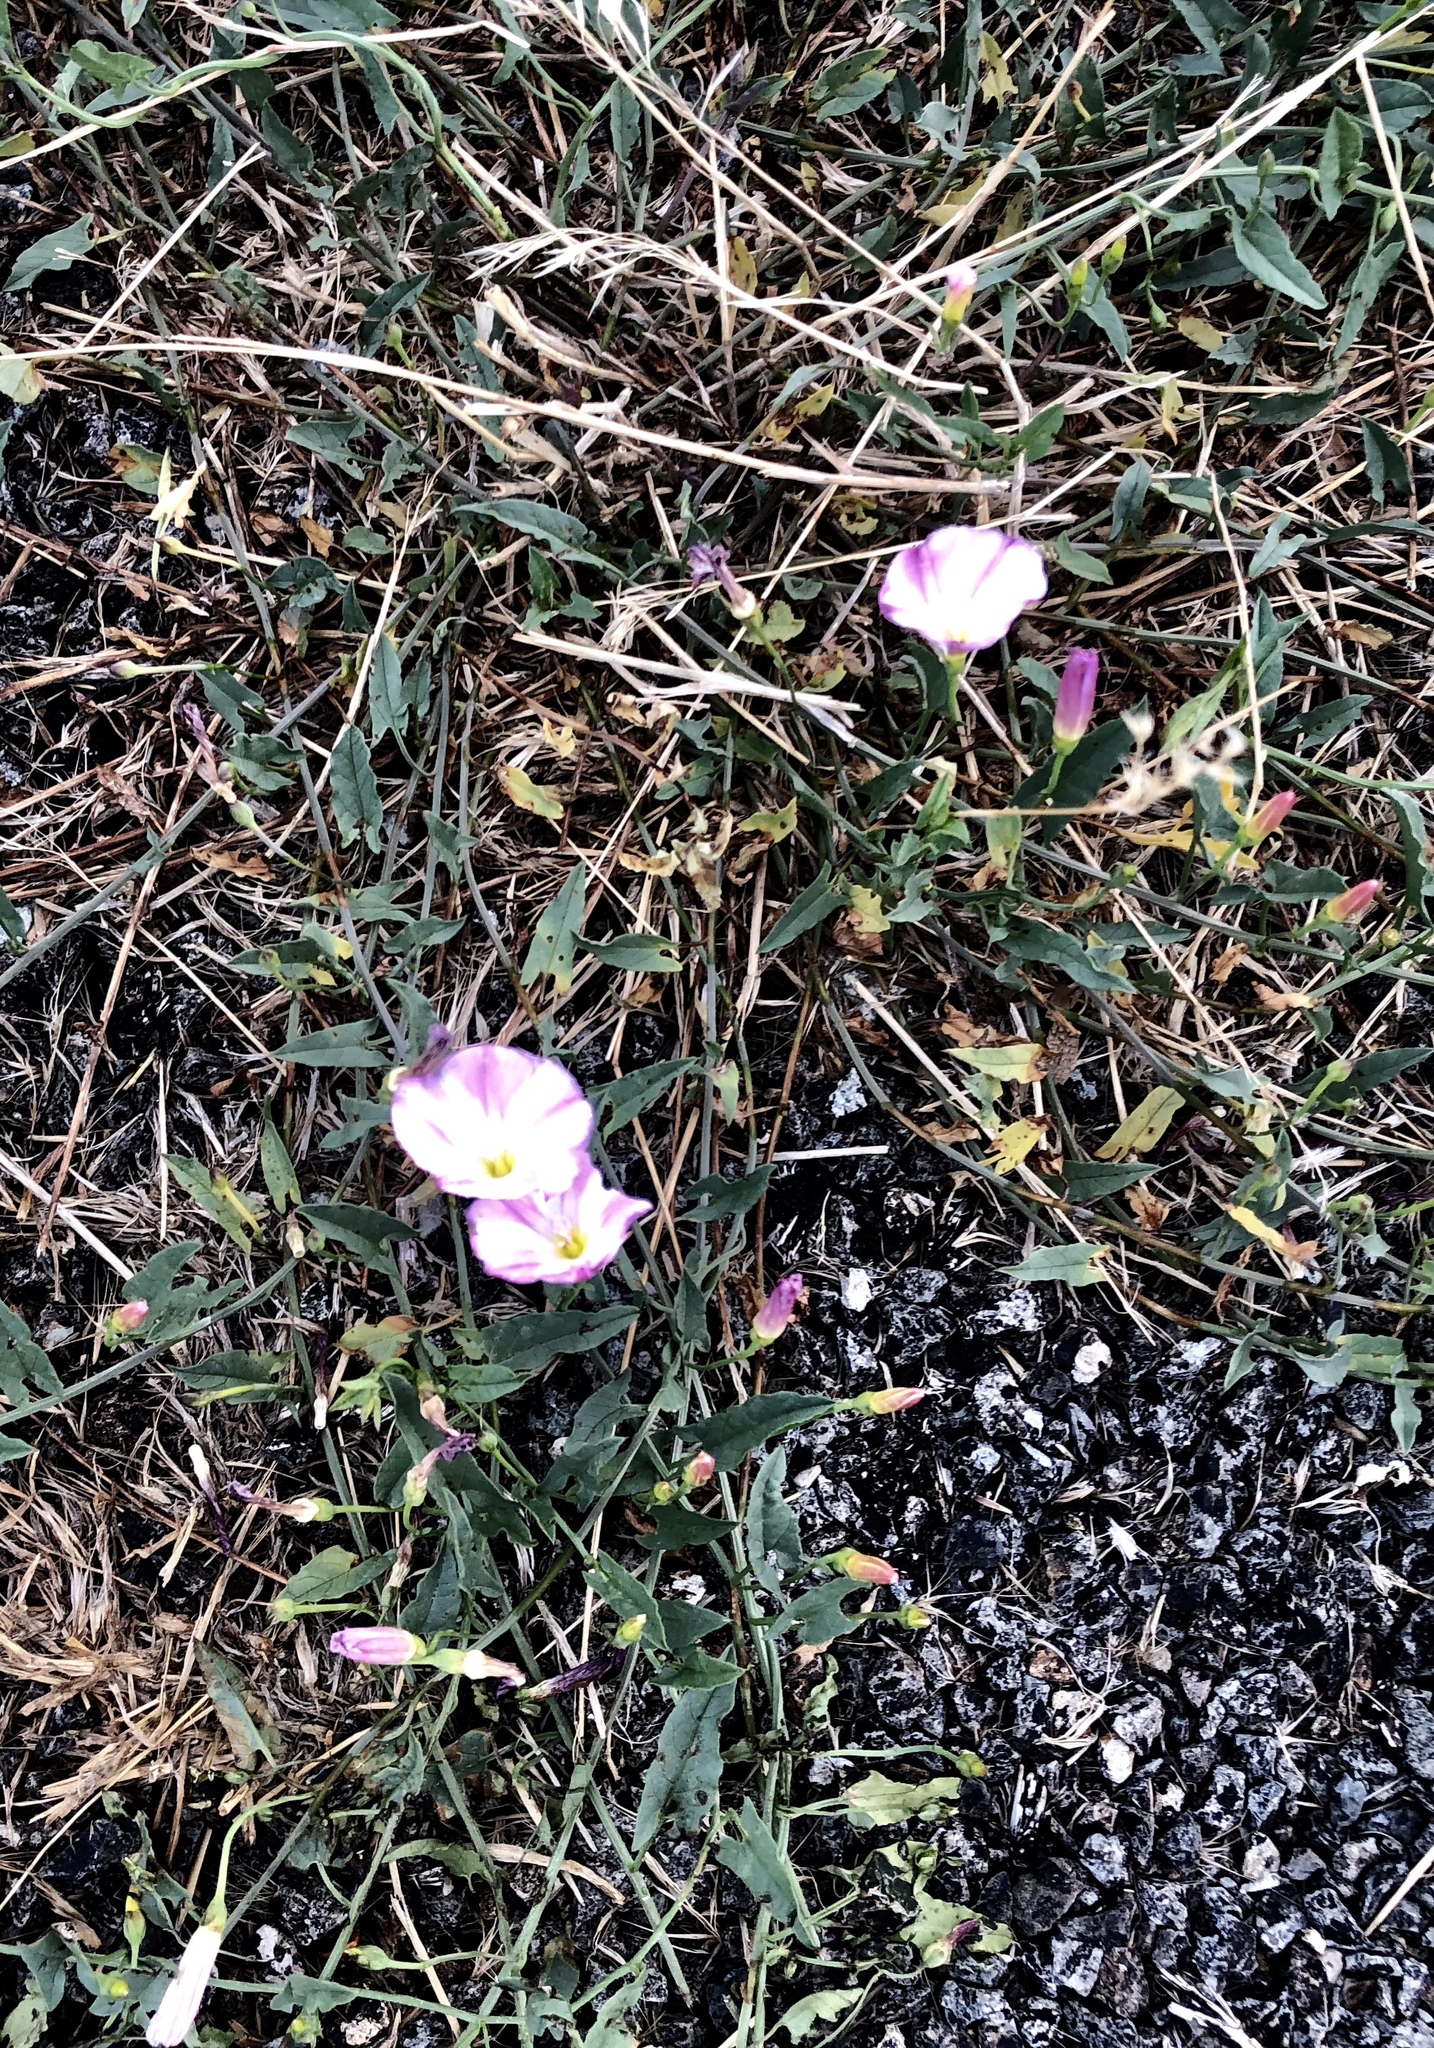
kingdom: Plantae
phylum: Tracheophyta
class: Magnoliopsida
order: Solanales
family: Convolvulaceae
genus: Convolvulus
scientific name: Convolvulus arvensis
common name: Field bindweed
